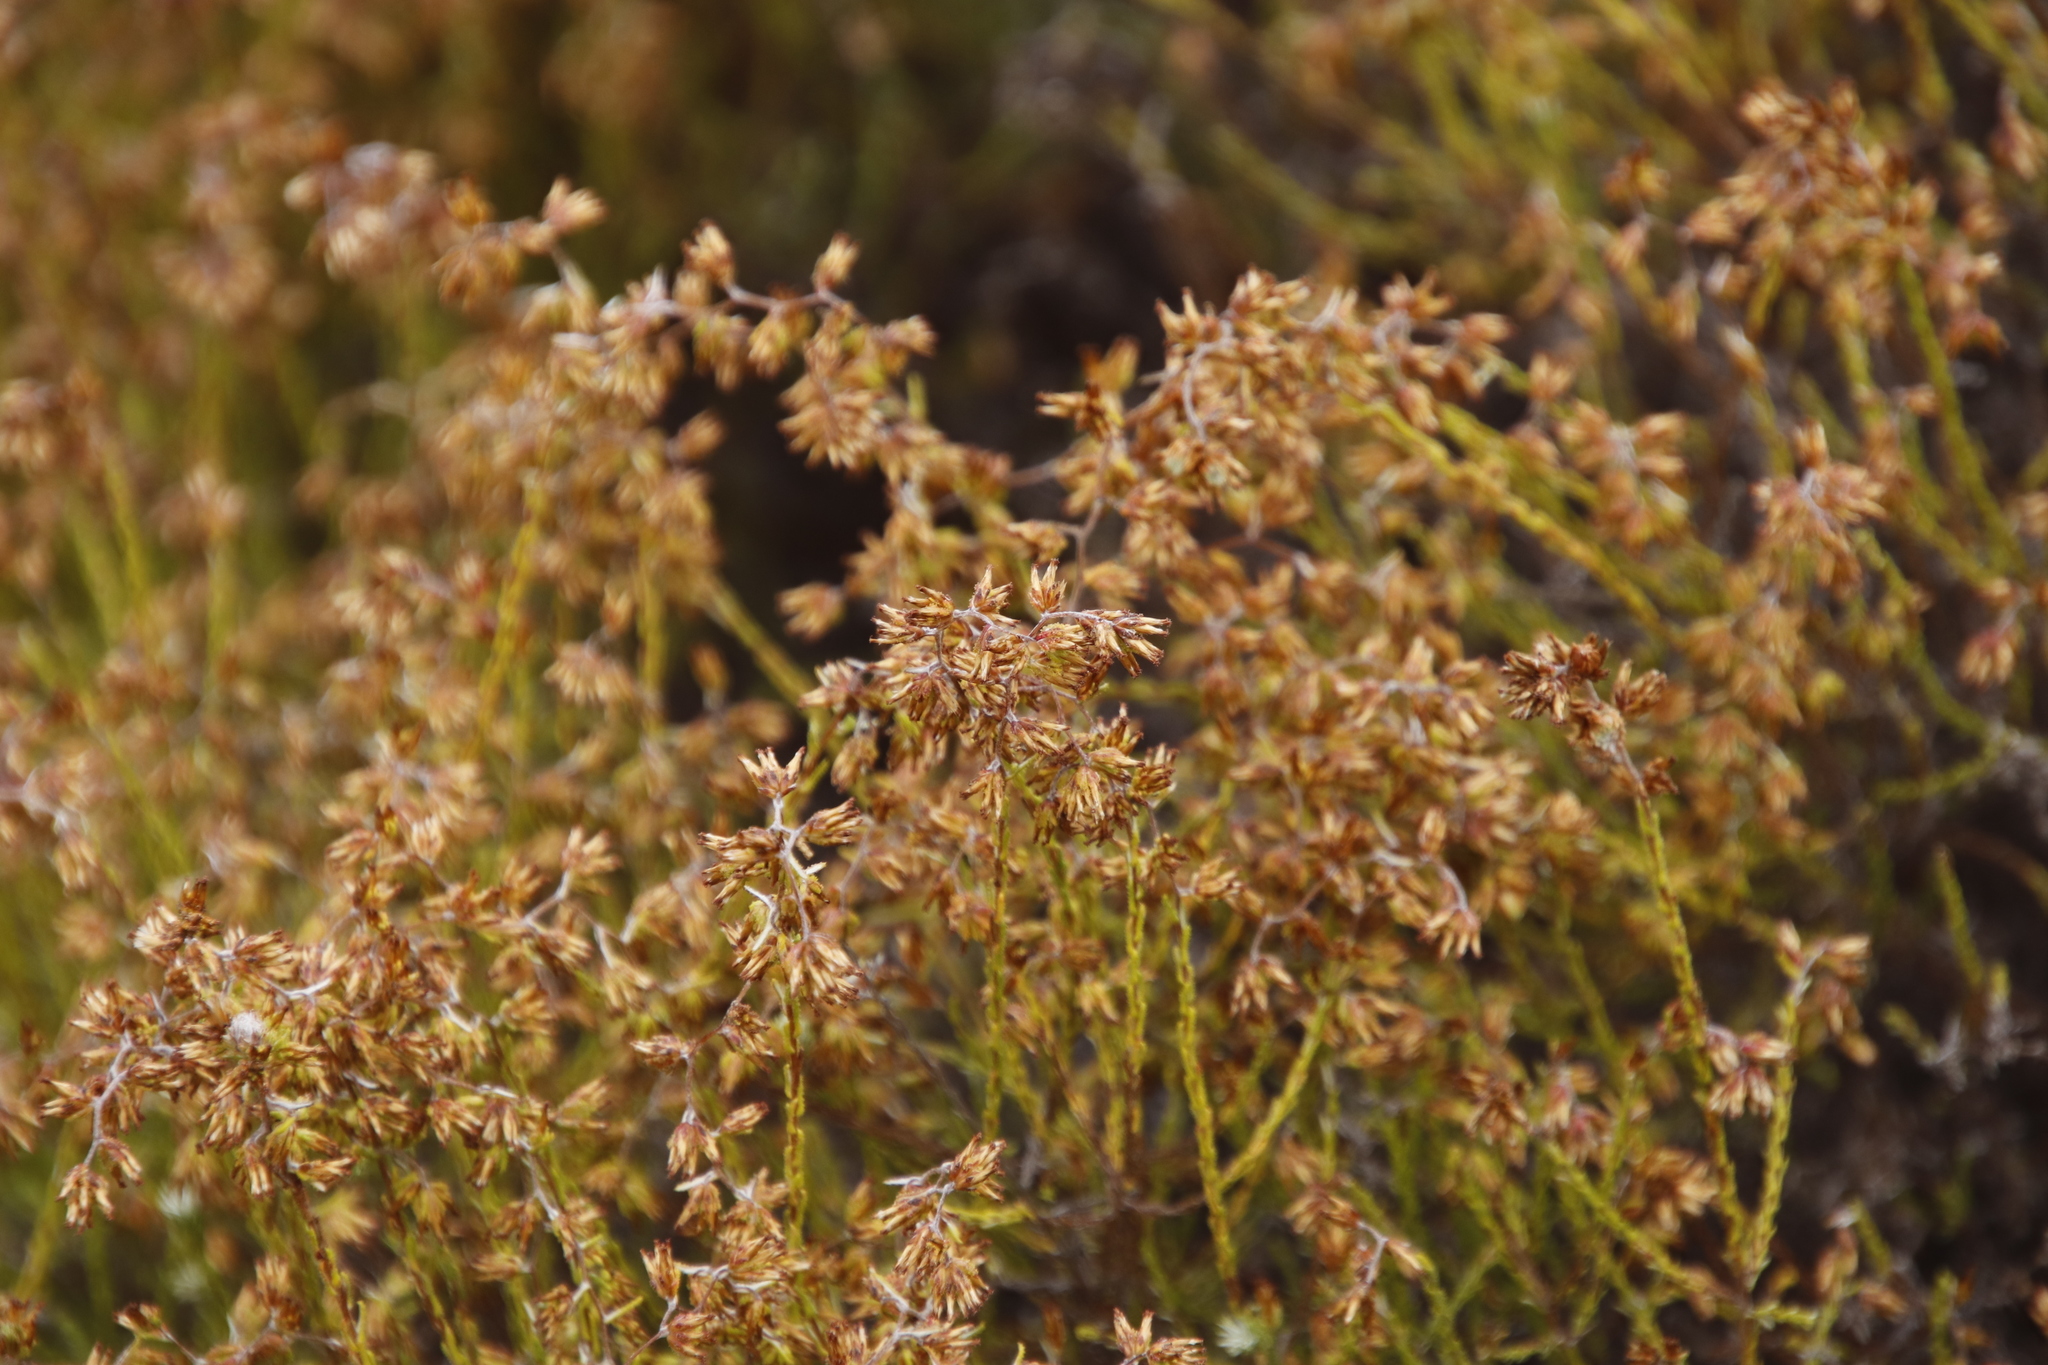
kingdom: Plantae
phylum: Tracheophyta
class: Magnoliopsida
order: Asterales
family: Asteraceae
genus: Myrovernix
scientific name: Myrovernix scaber
